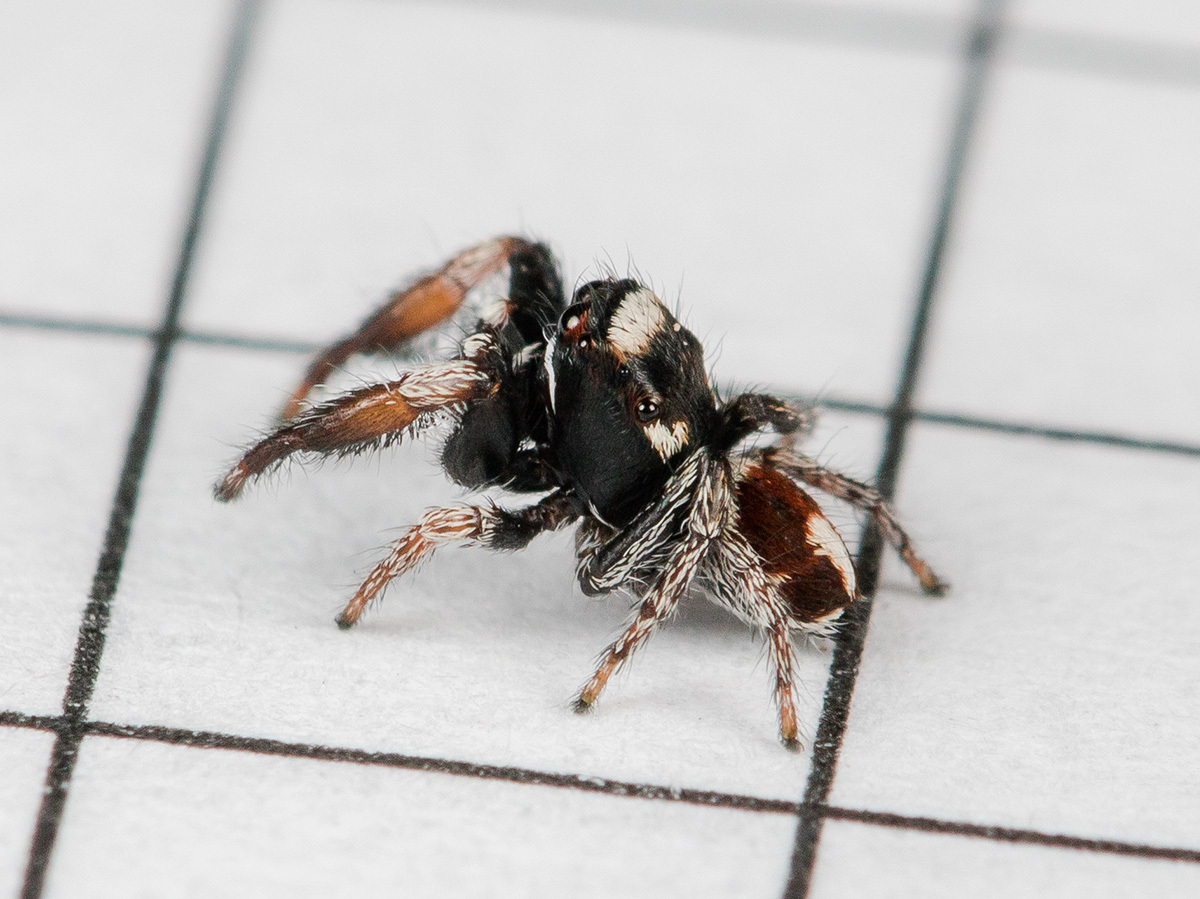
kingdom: Animalia
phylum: Arthropoda
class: Arachnida
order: Araneae
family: Salticidae
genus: Pellenes
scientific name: Pellenes geniculatus
